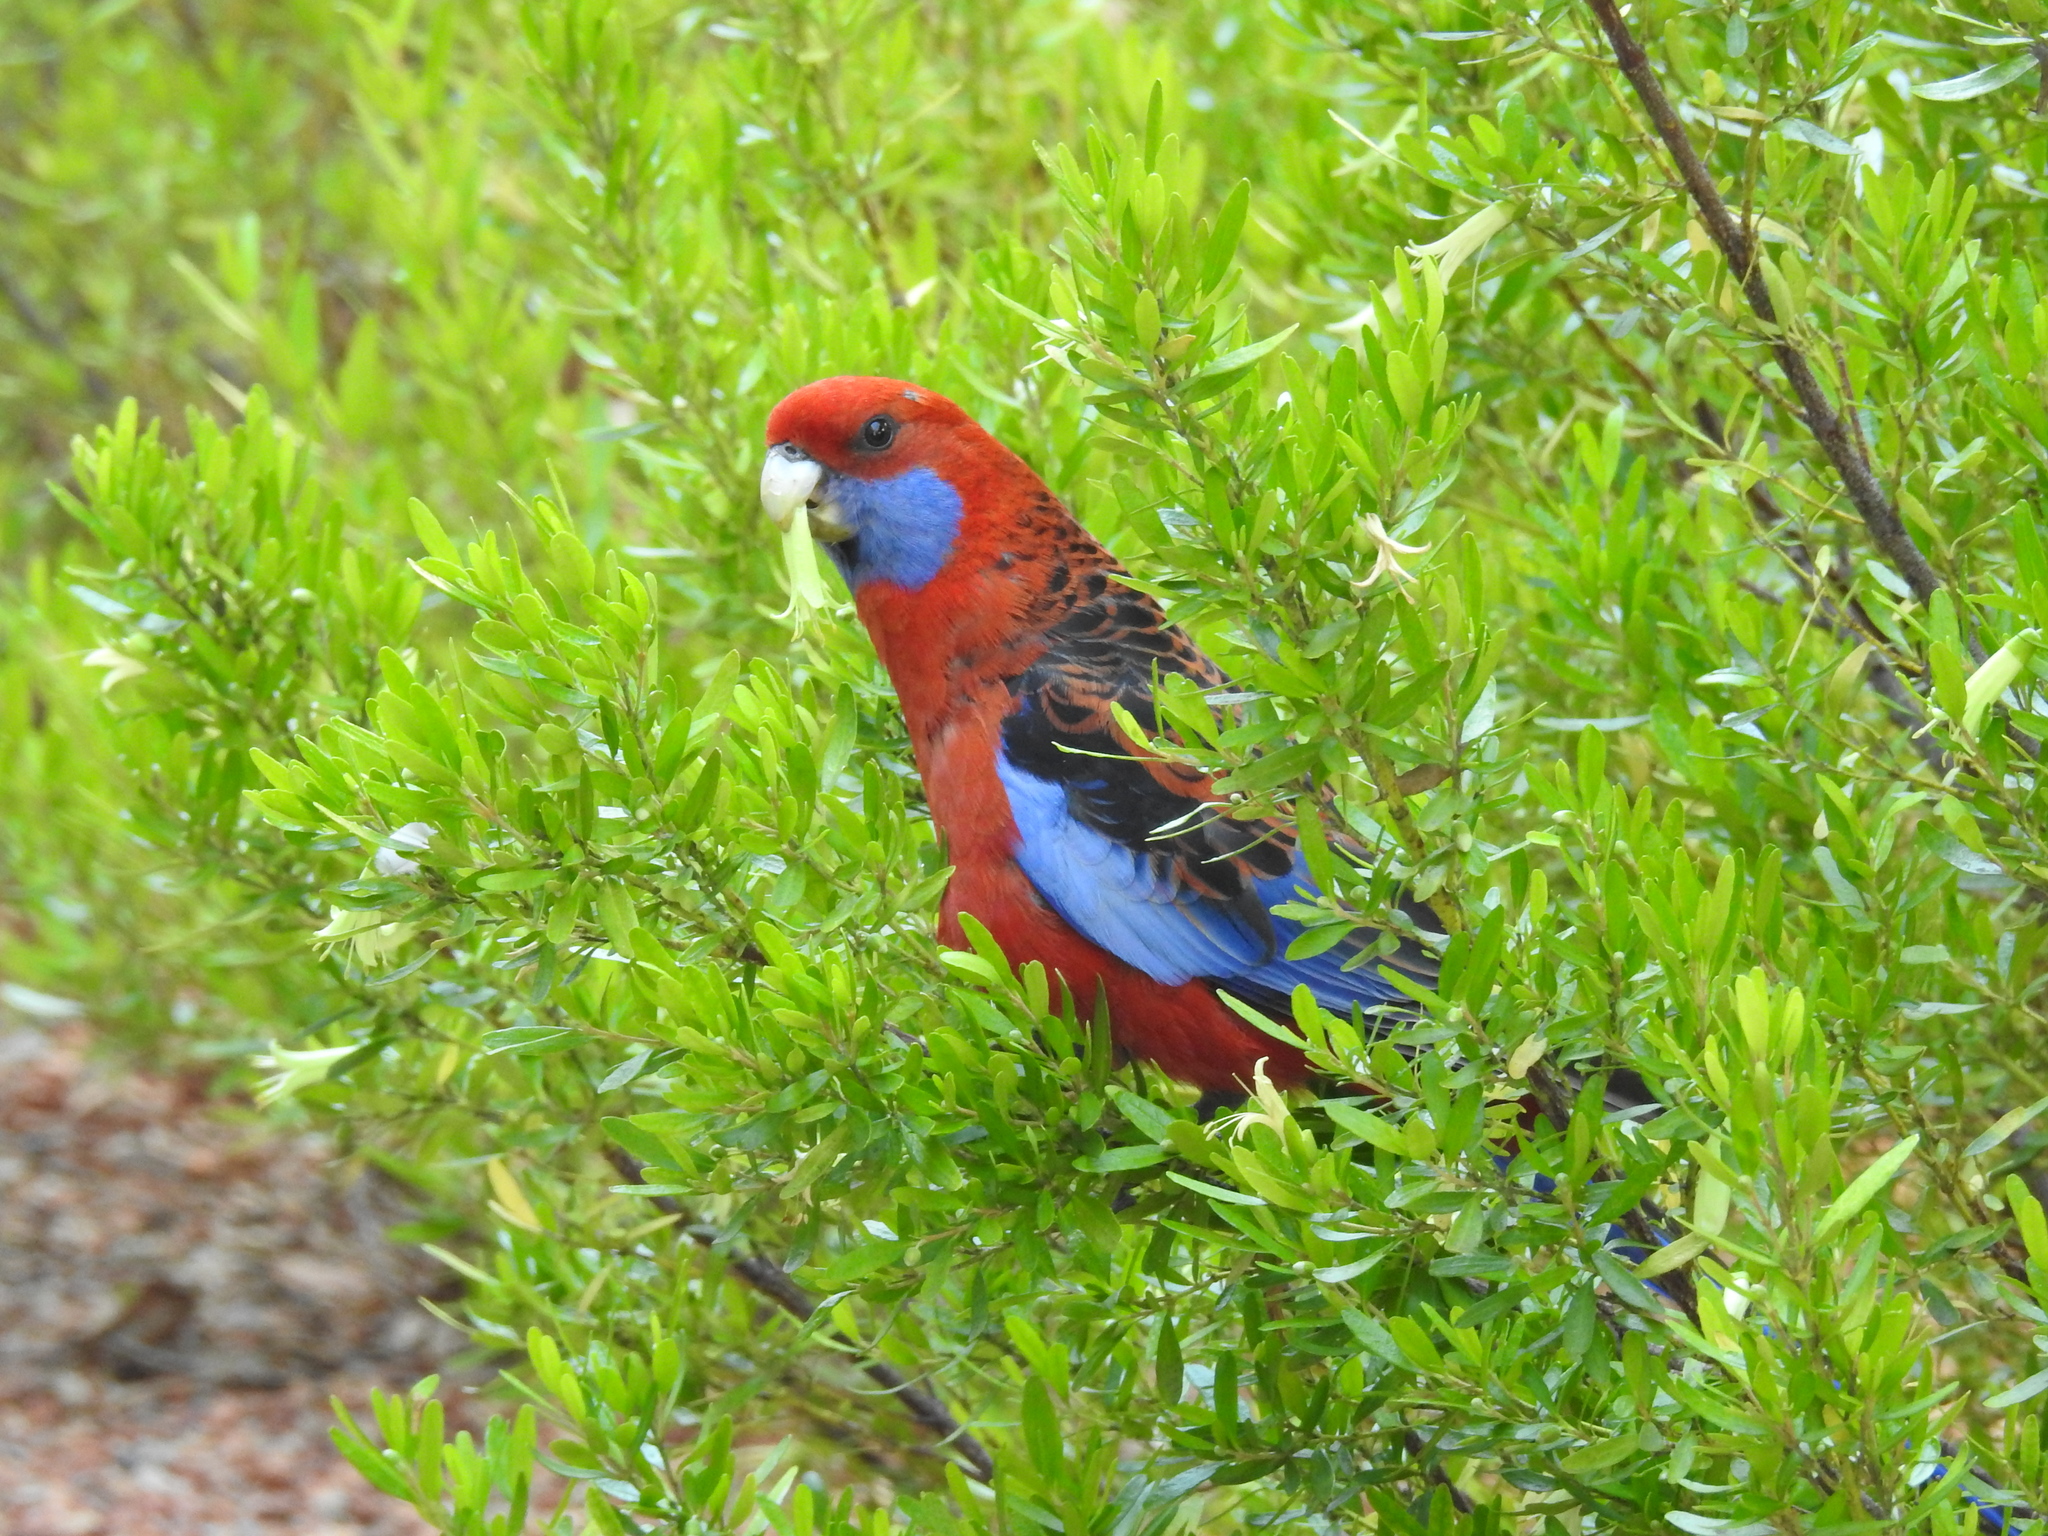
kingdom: Animalia
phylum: Chordata
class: Aves
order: Psittaciformes
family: Psittacidae
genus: Platycercus
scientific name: Platycercus elegans
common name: Crimson rosella
